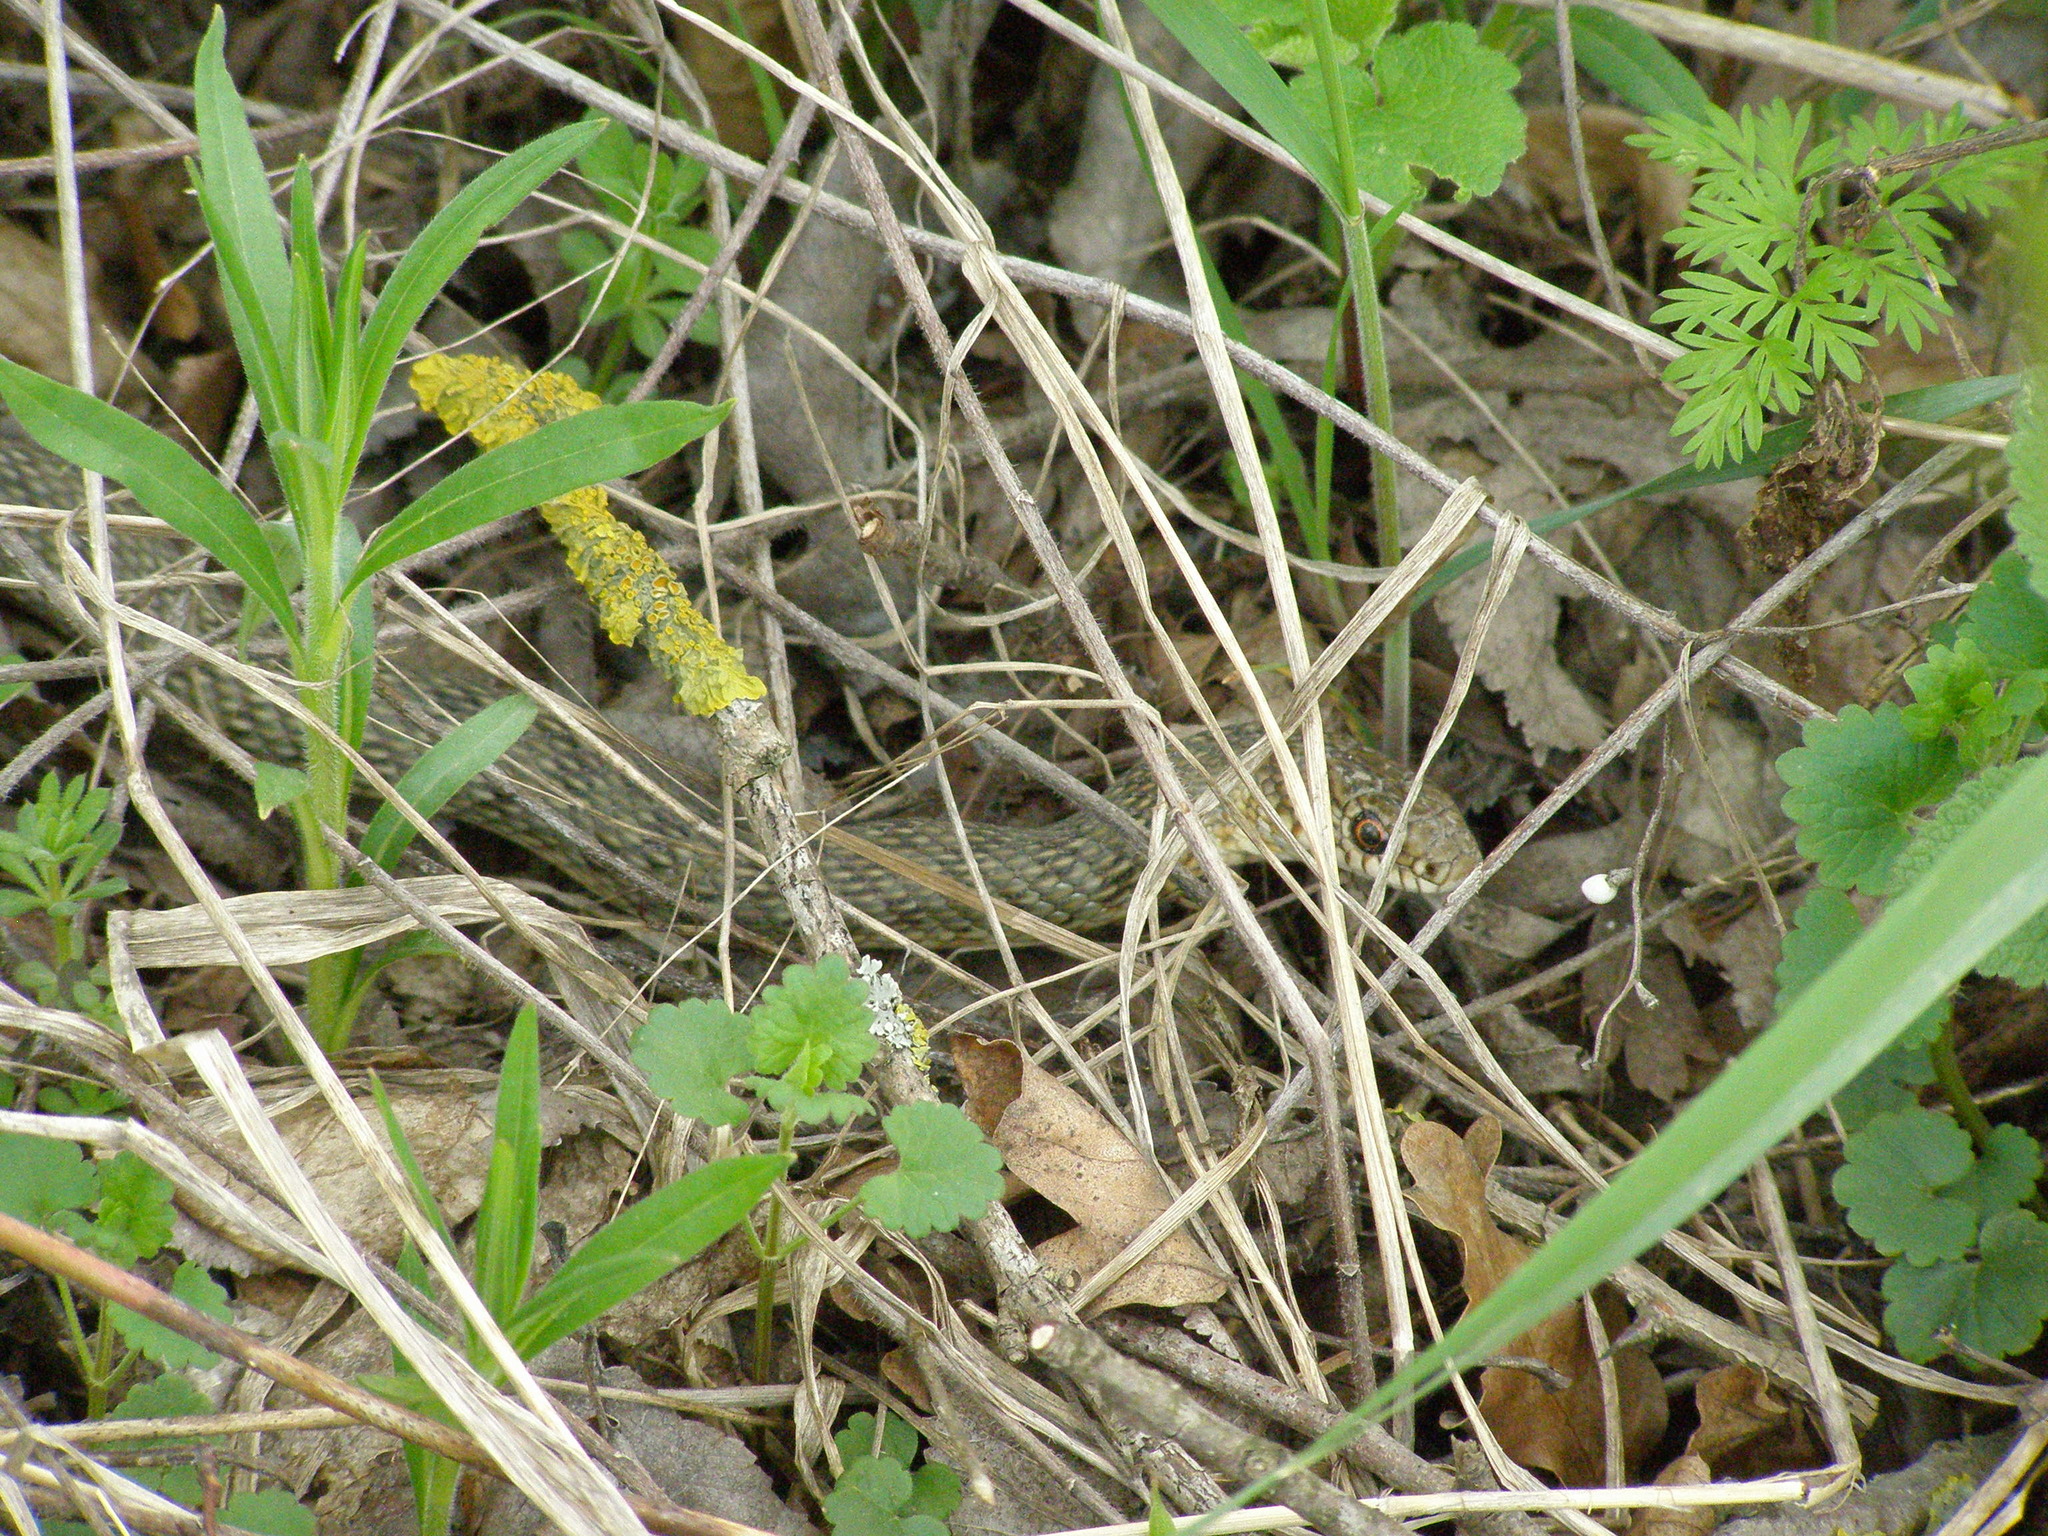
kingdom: Animalia
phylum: Chordata
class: Squamata
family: Colubridae
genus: Dolichophis
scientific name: Dolichophis caspius
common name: Large whip snake
